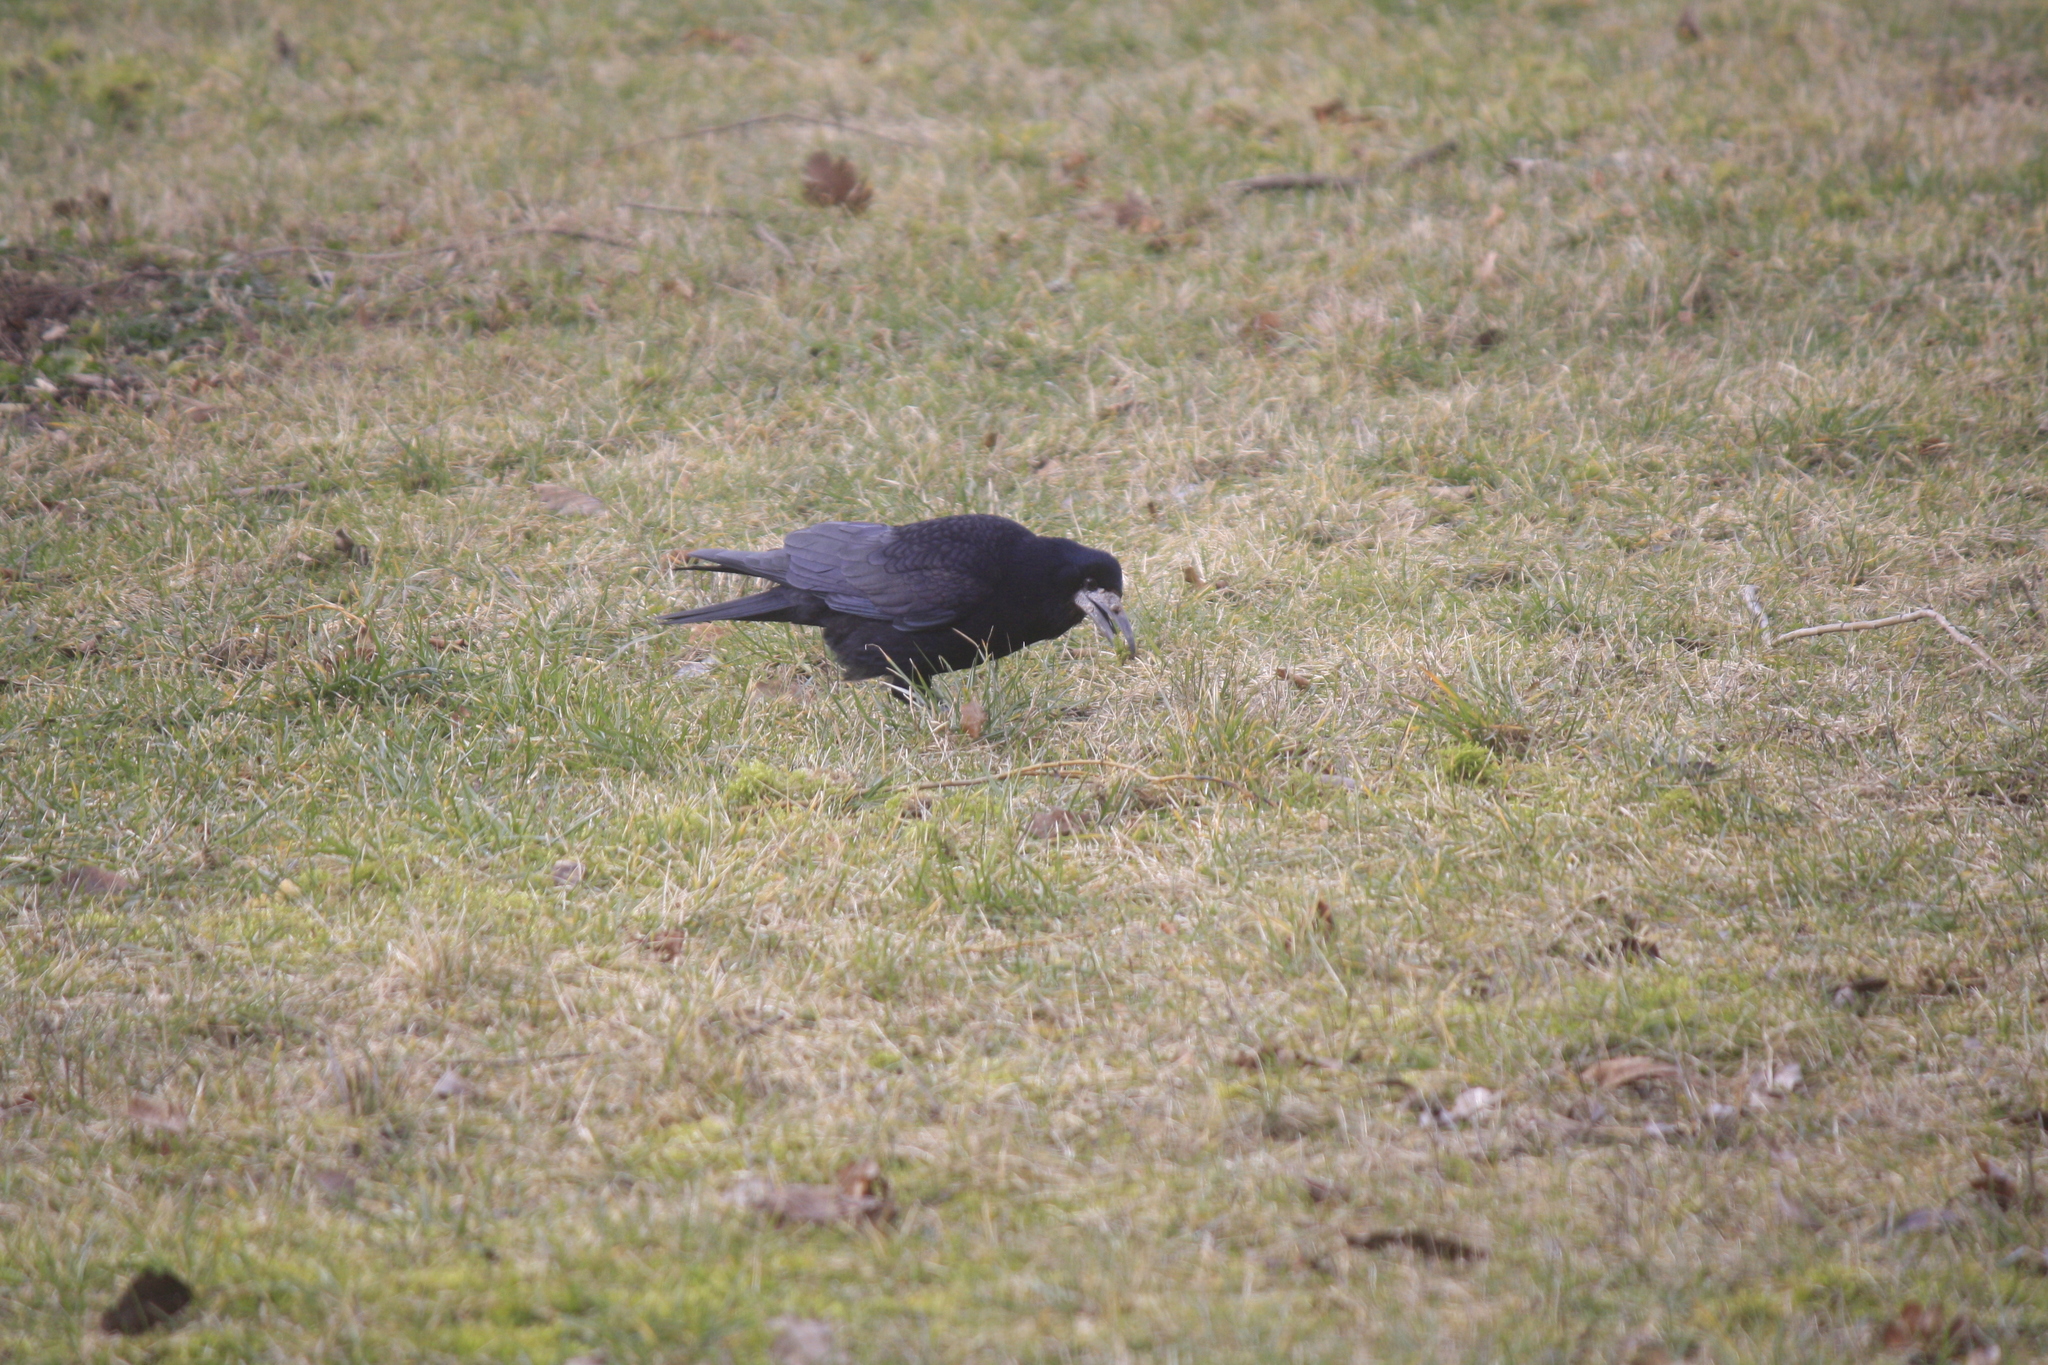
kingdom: Animalia
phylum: Chordata
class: Aves
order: Passeriformes
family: Corvidae
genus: Corvus
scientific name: Corvus frugilegus
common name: Rook
